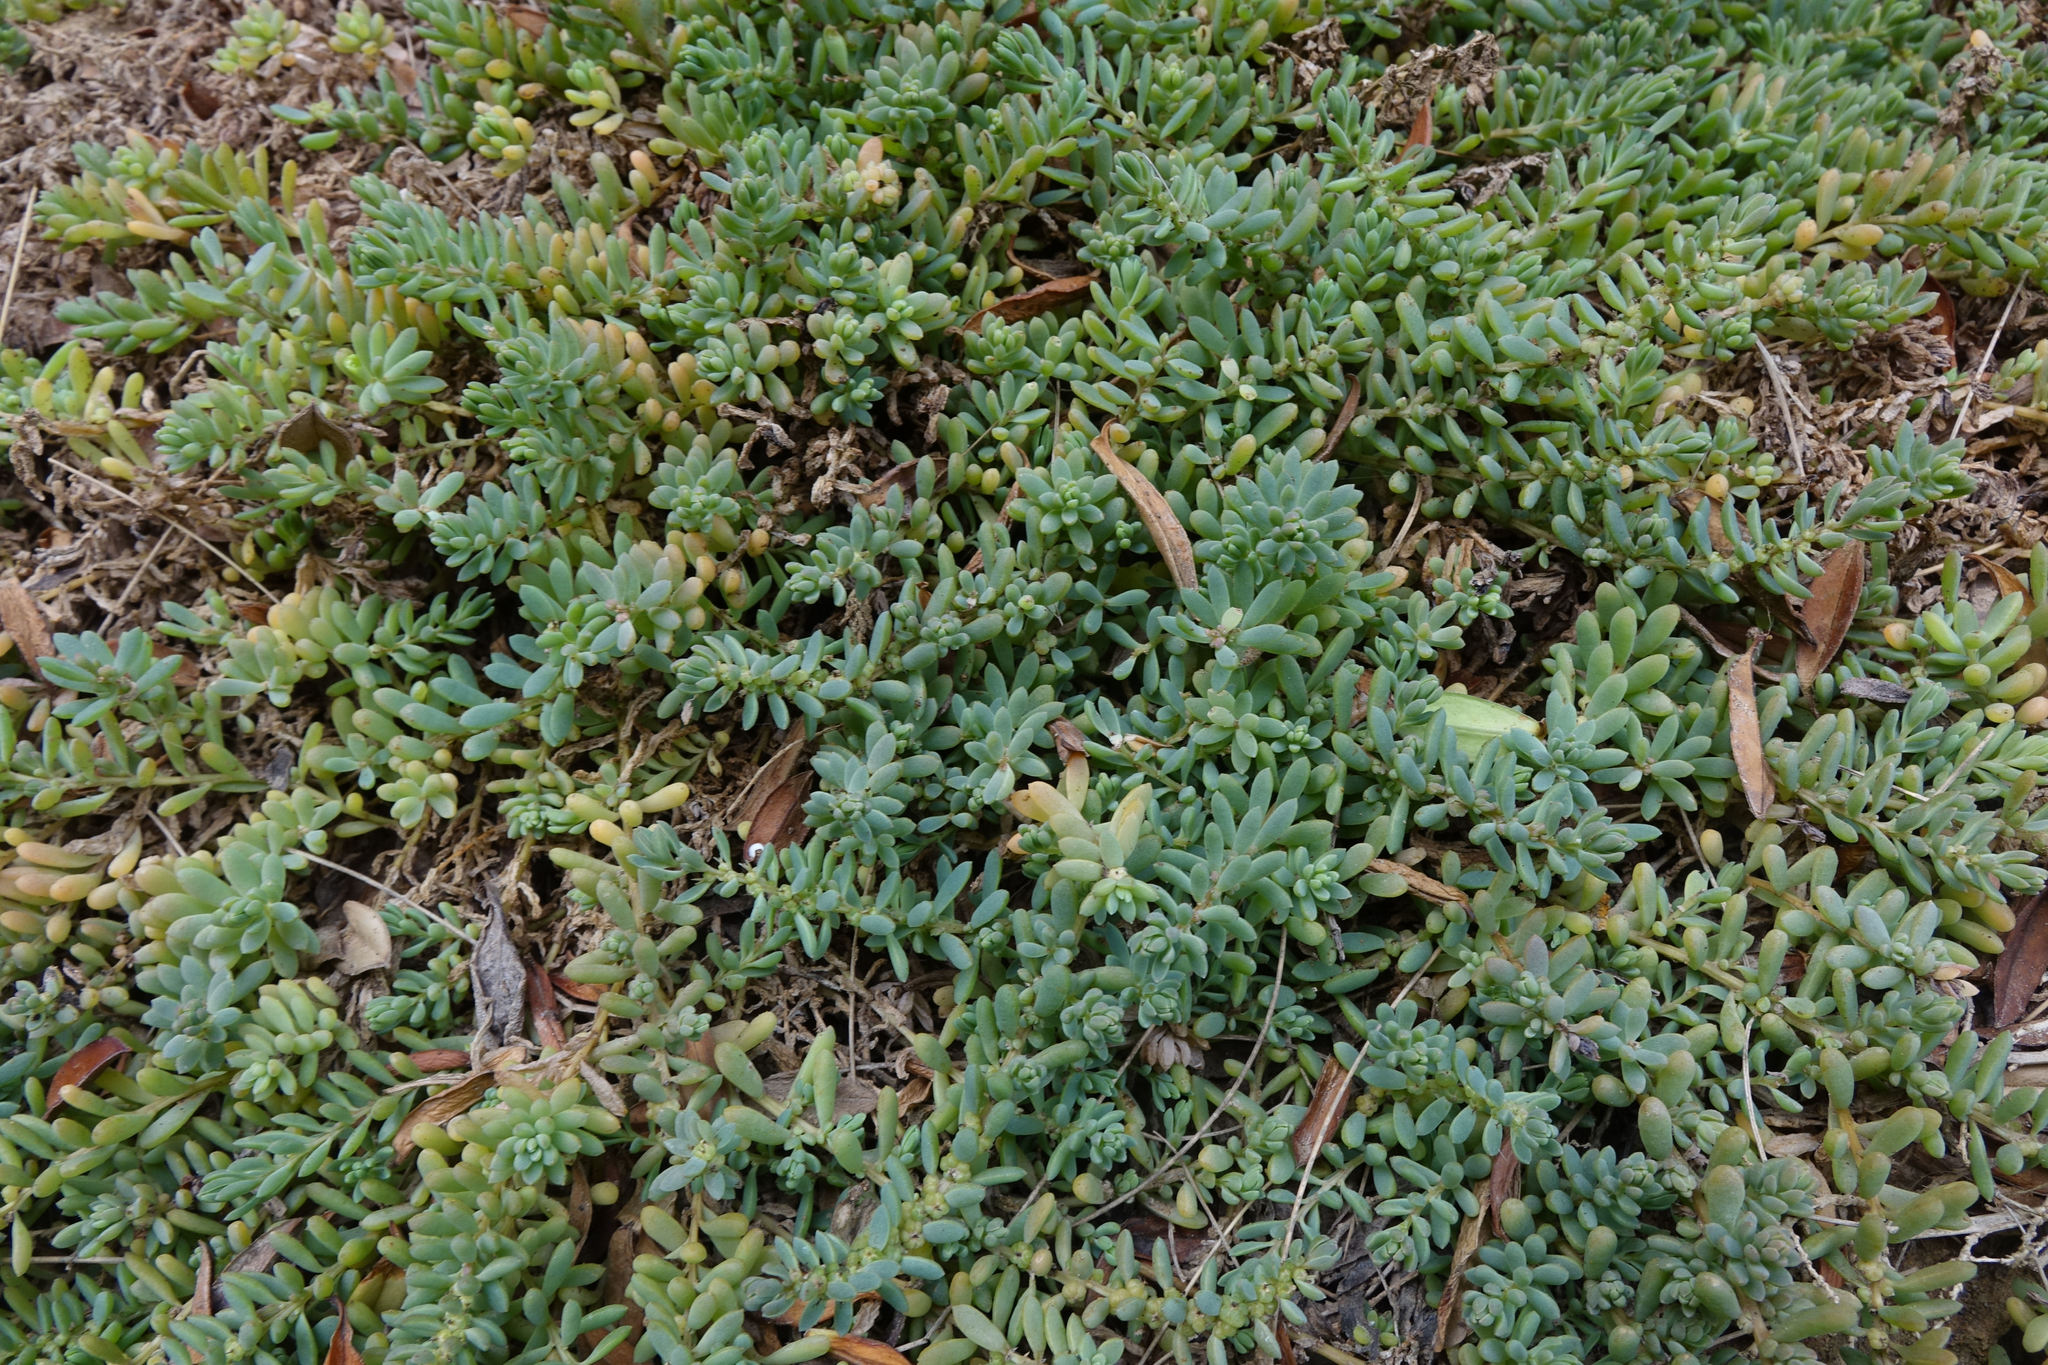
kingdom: Plantae
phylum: Tracheophyta
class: Magnoliopsida
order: Caryophyllales
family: Amaranthaceae
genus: Suaeda
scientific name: Suaeda novae-zelandiae
